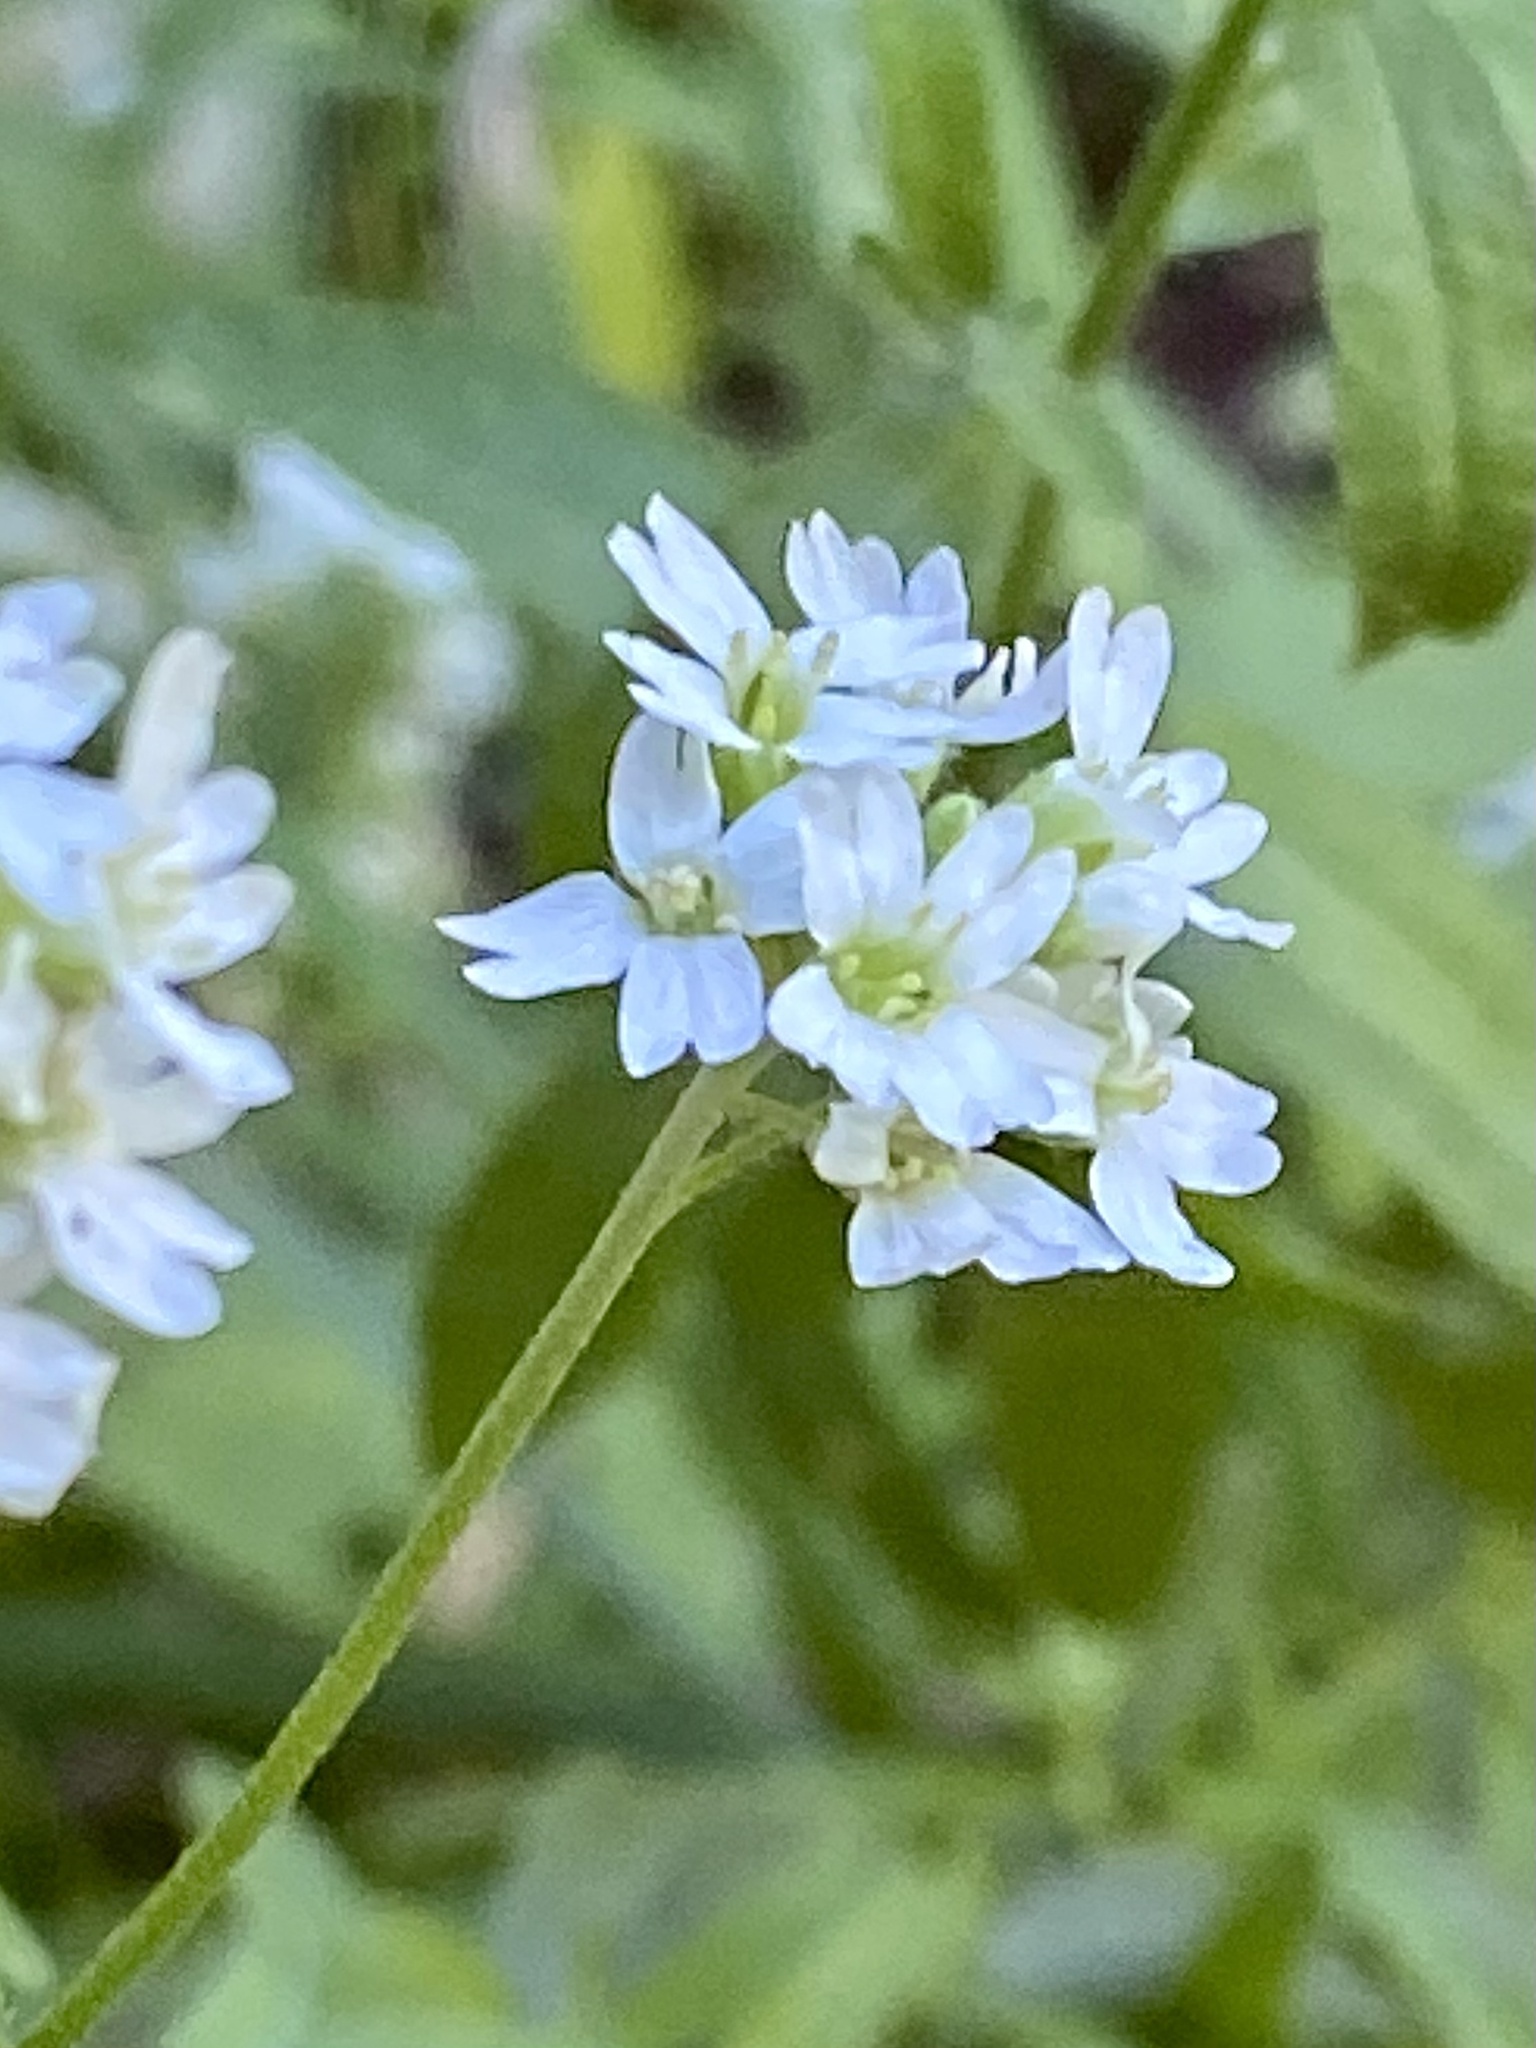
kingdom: Plantae
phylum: Tracheophyta
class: Magnoliopsida
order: Brassicales
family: Brassicaceae
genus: Berteroa
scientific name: Berteroa incana
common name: Hoary alison
